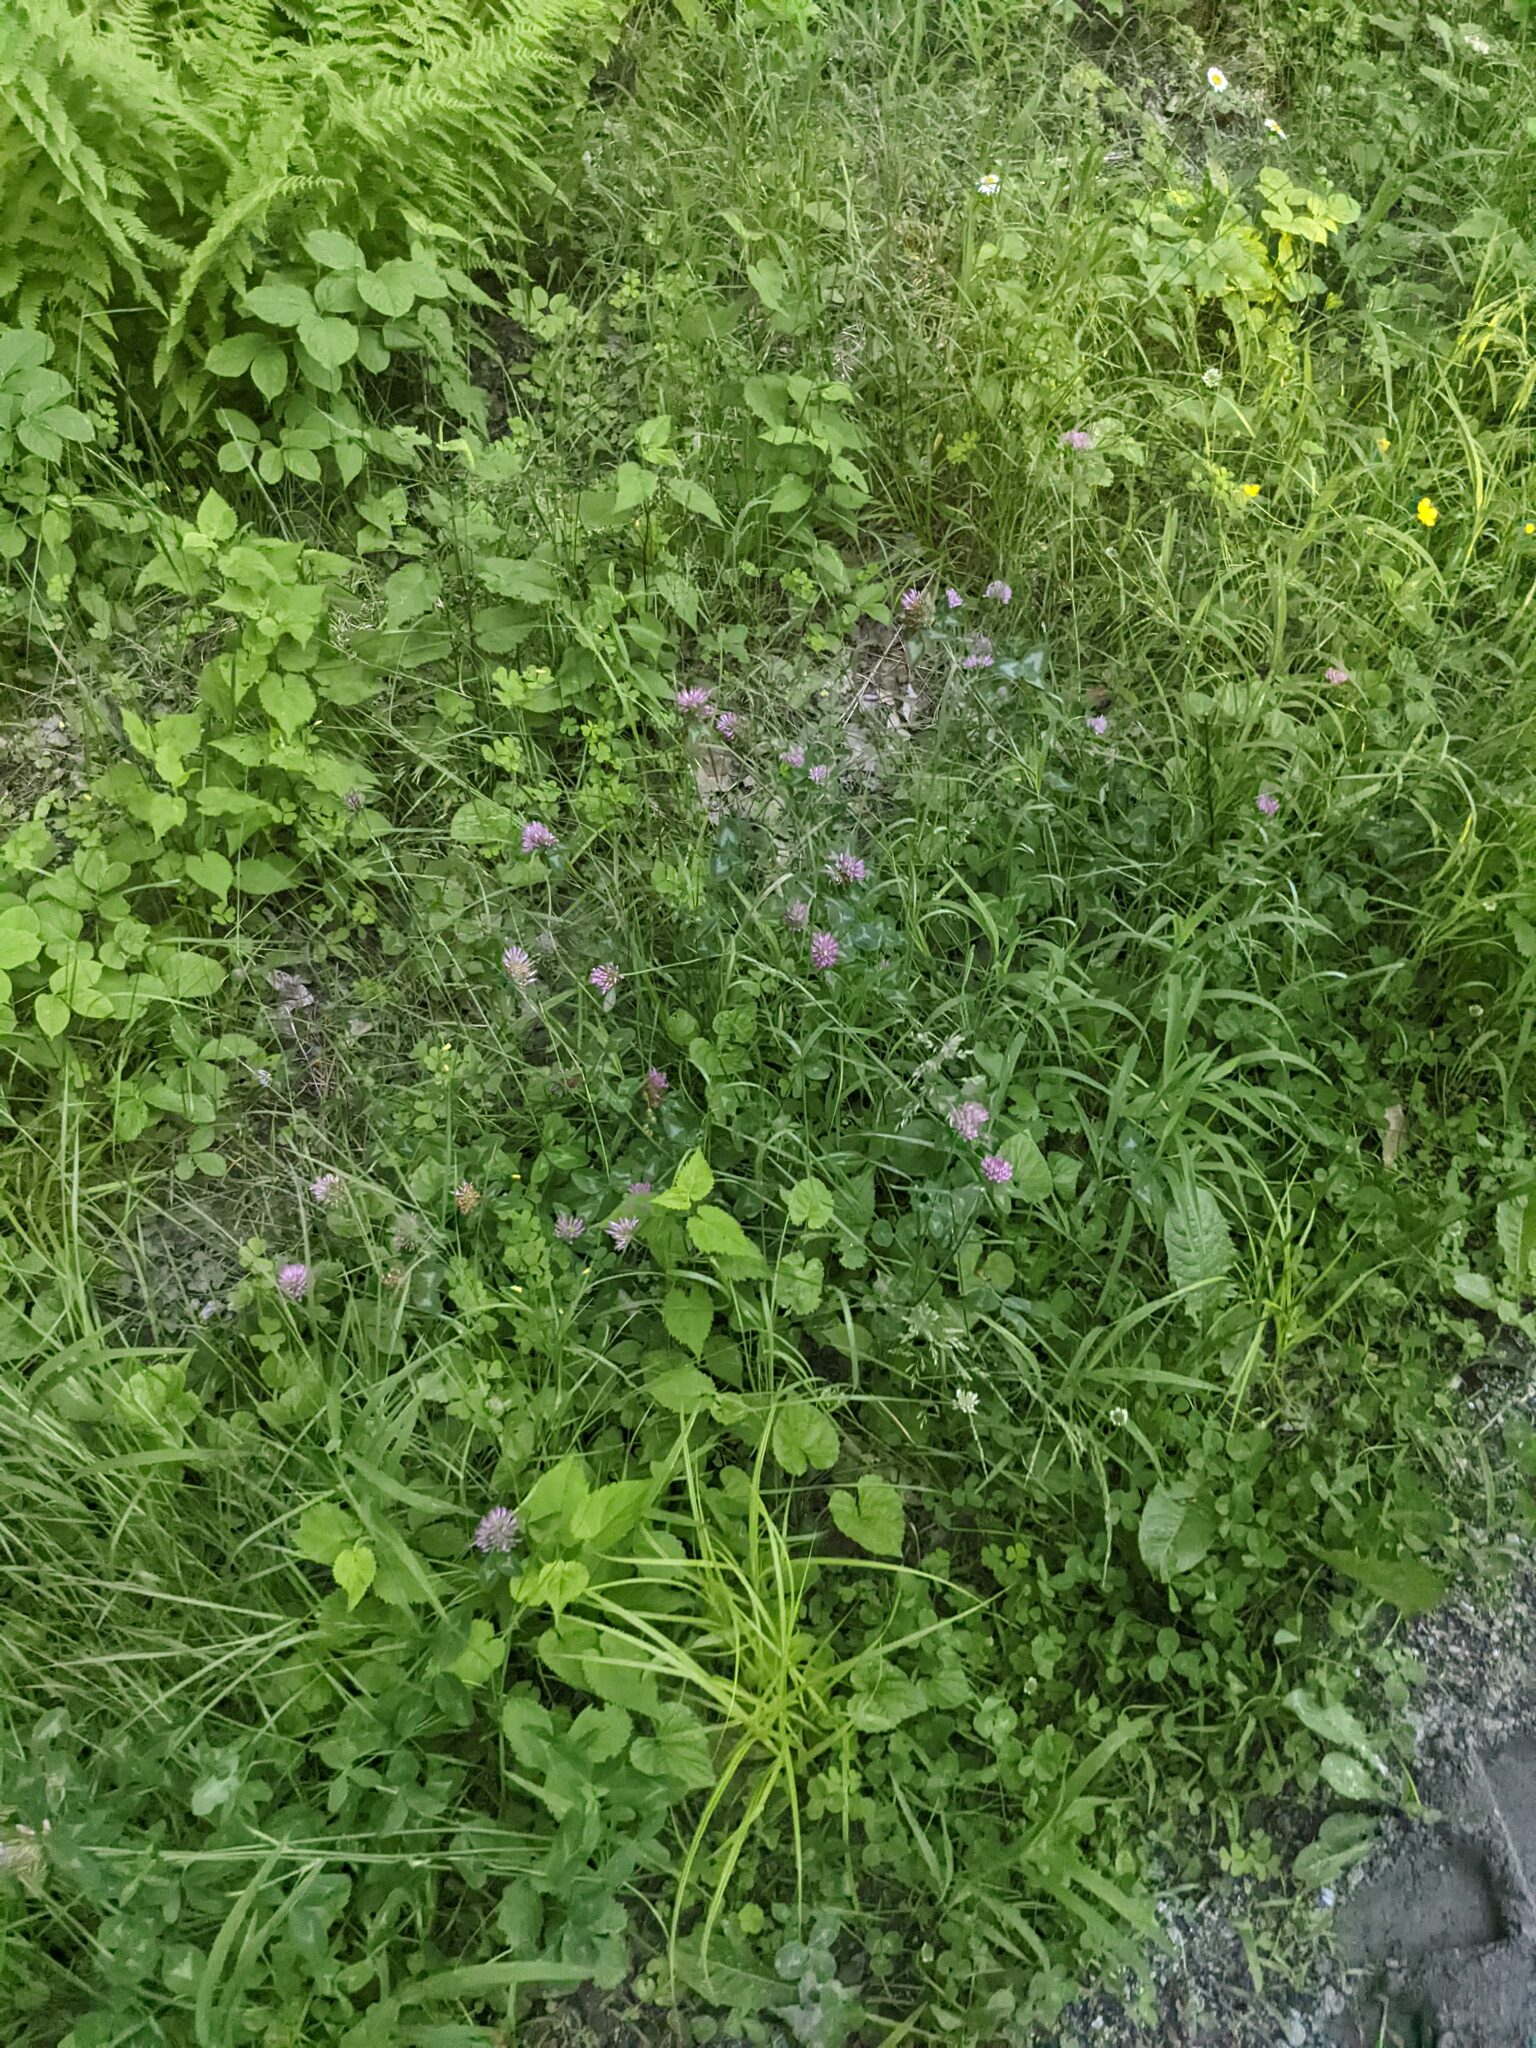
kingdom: Plantae
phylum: Tracheophyta
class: Magnoliopsida
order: Fabales
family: Fabaceae
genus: Trifolium
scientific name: Trifolium pratense
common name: Red clover
